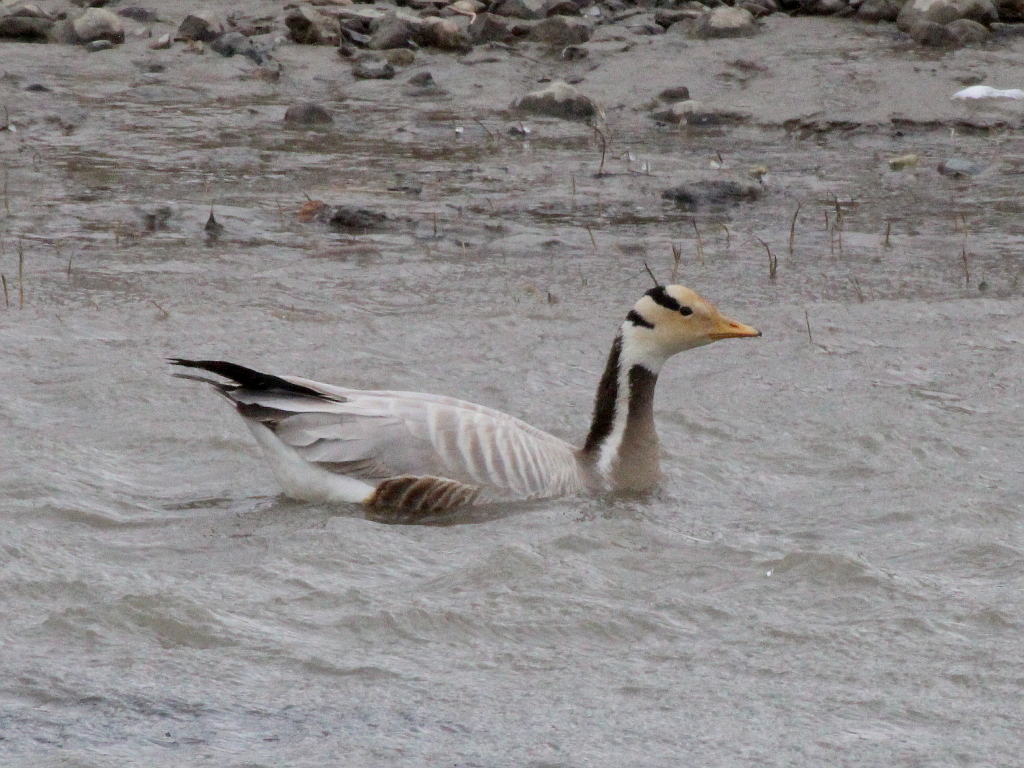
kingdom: Animalia
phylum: Chordata
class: Aves
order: Anseriformes
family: Anatidae
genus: Anser
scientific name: Anser indicus
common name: Bar-headed goose
